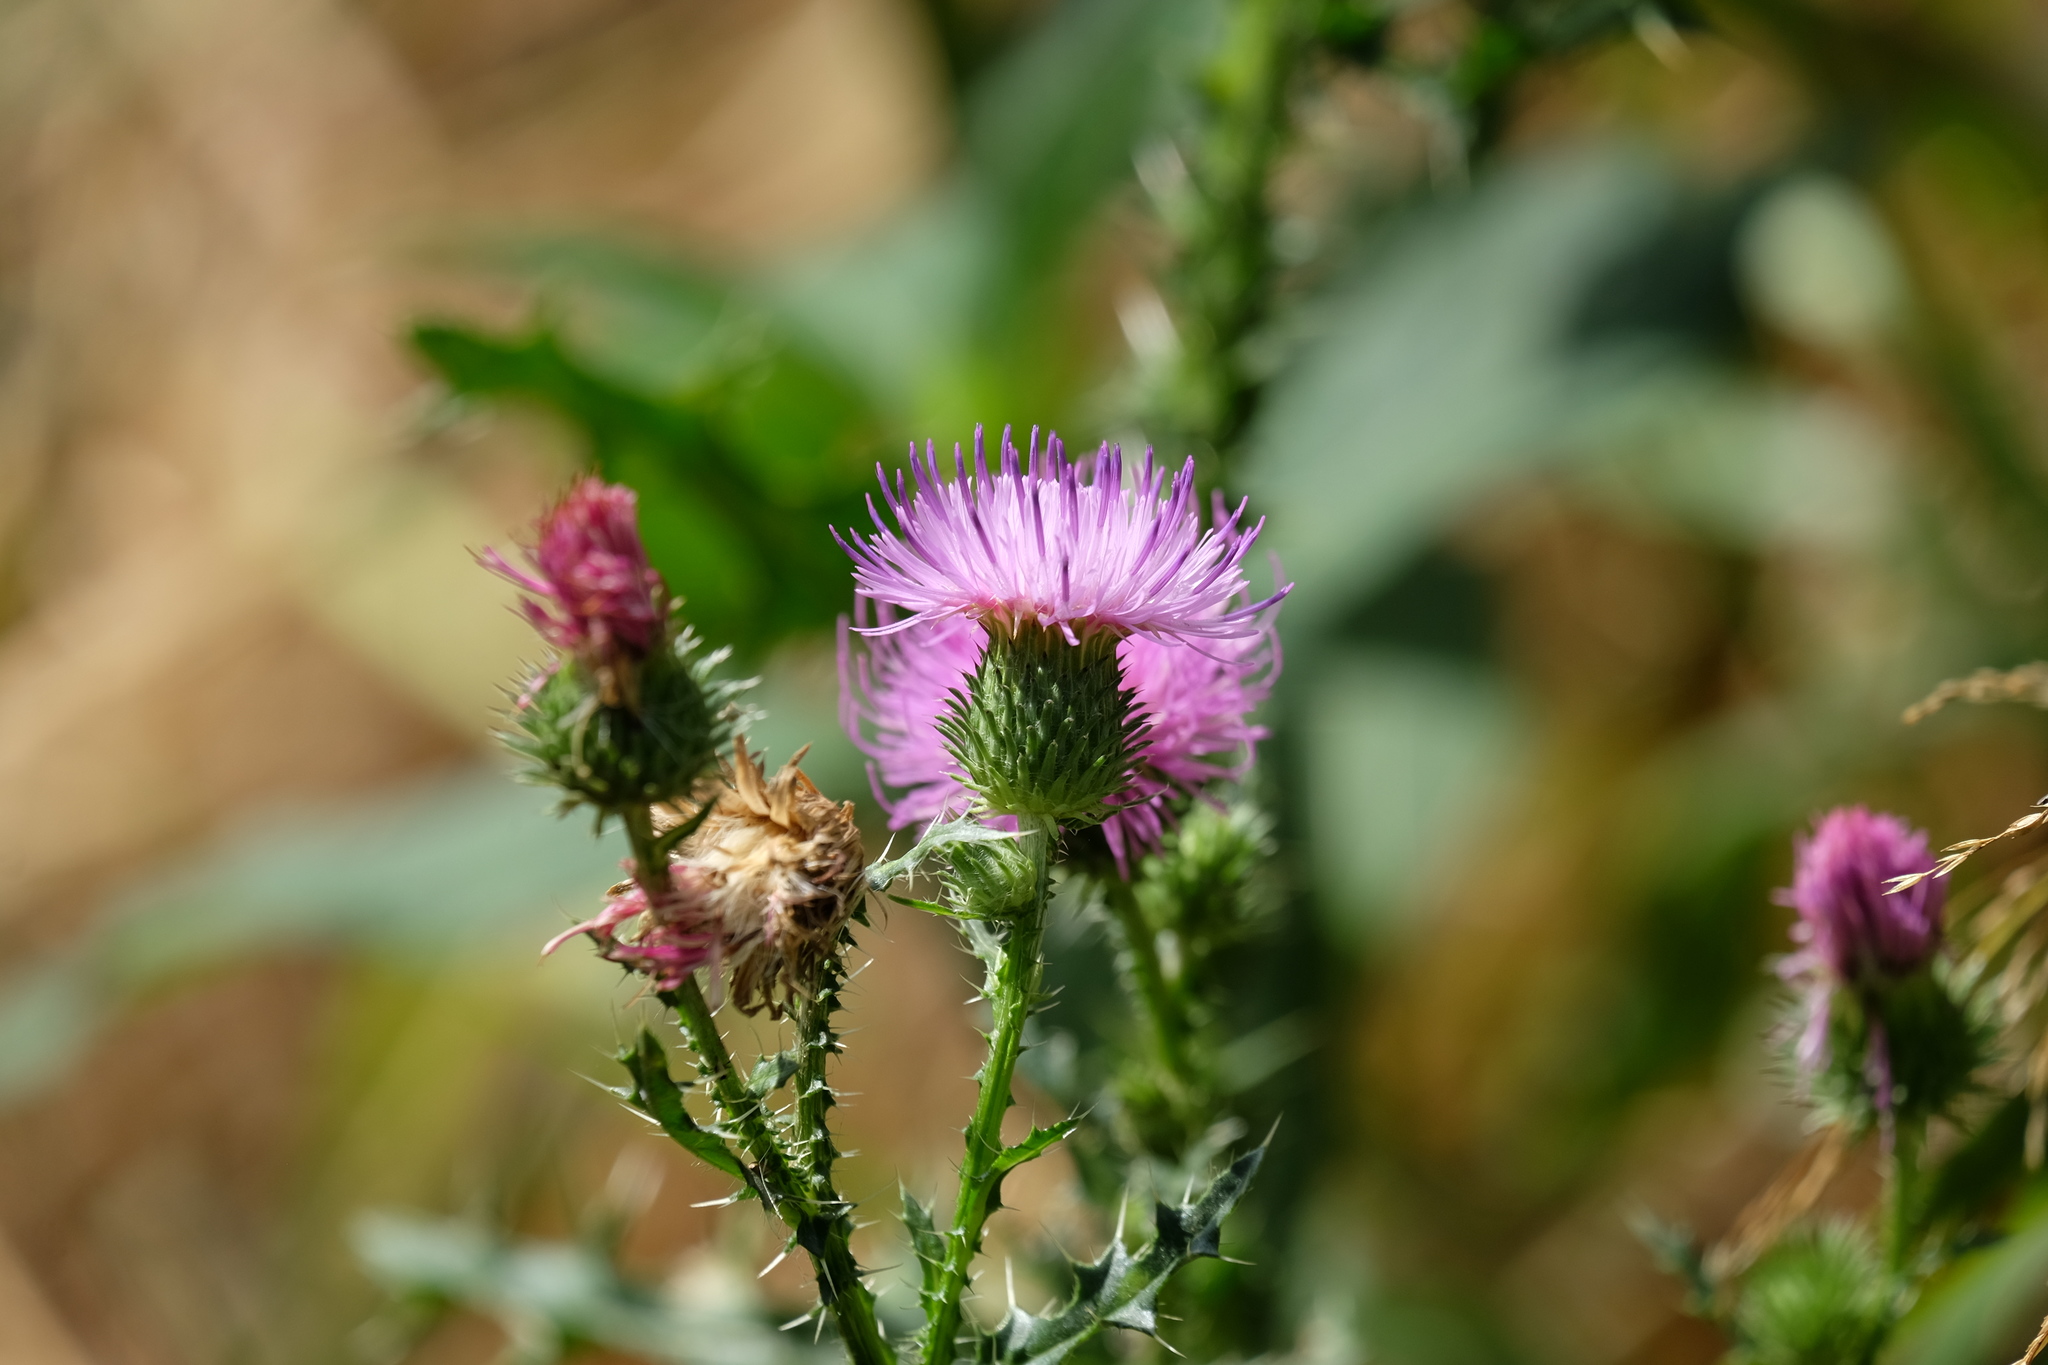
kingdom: Plantae
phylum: Tracheophyta
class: Magnoliopsida
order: Asterales
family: Asteraceae
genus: Carduus
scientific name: Carduus acanthoides
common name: Plumeless thistle
